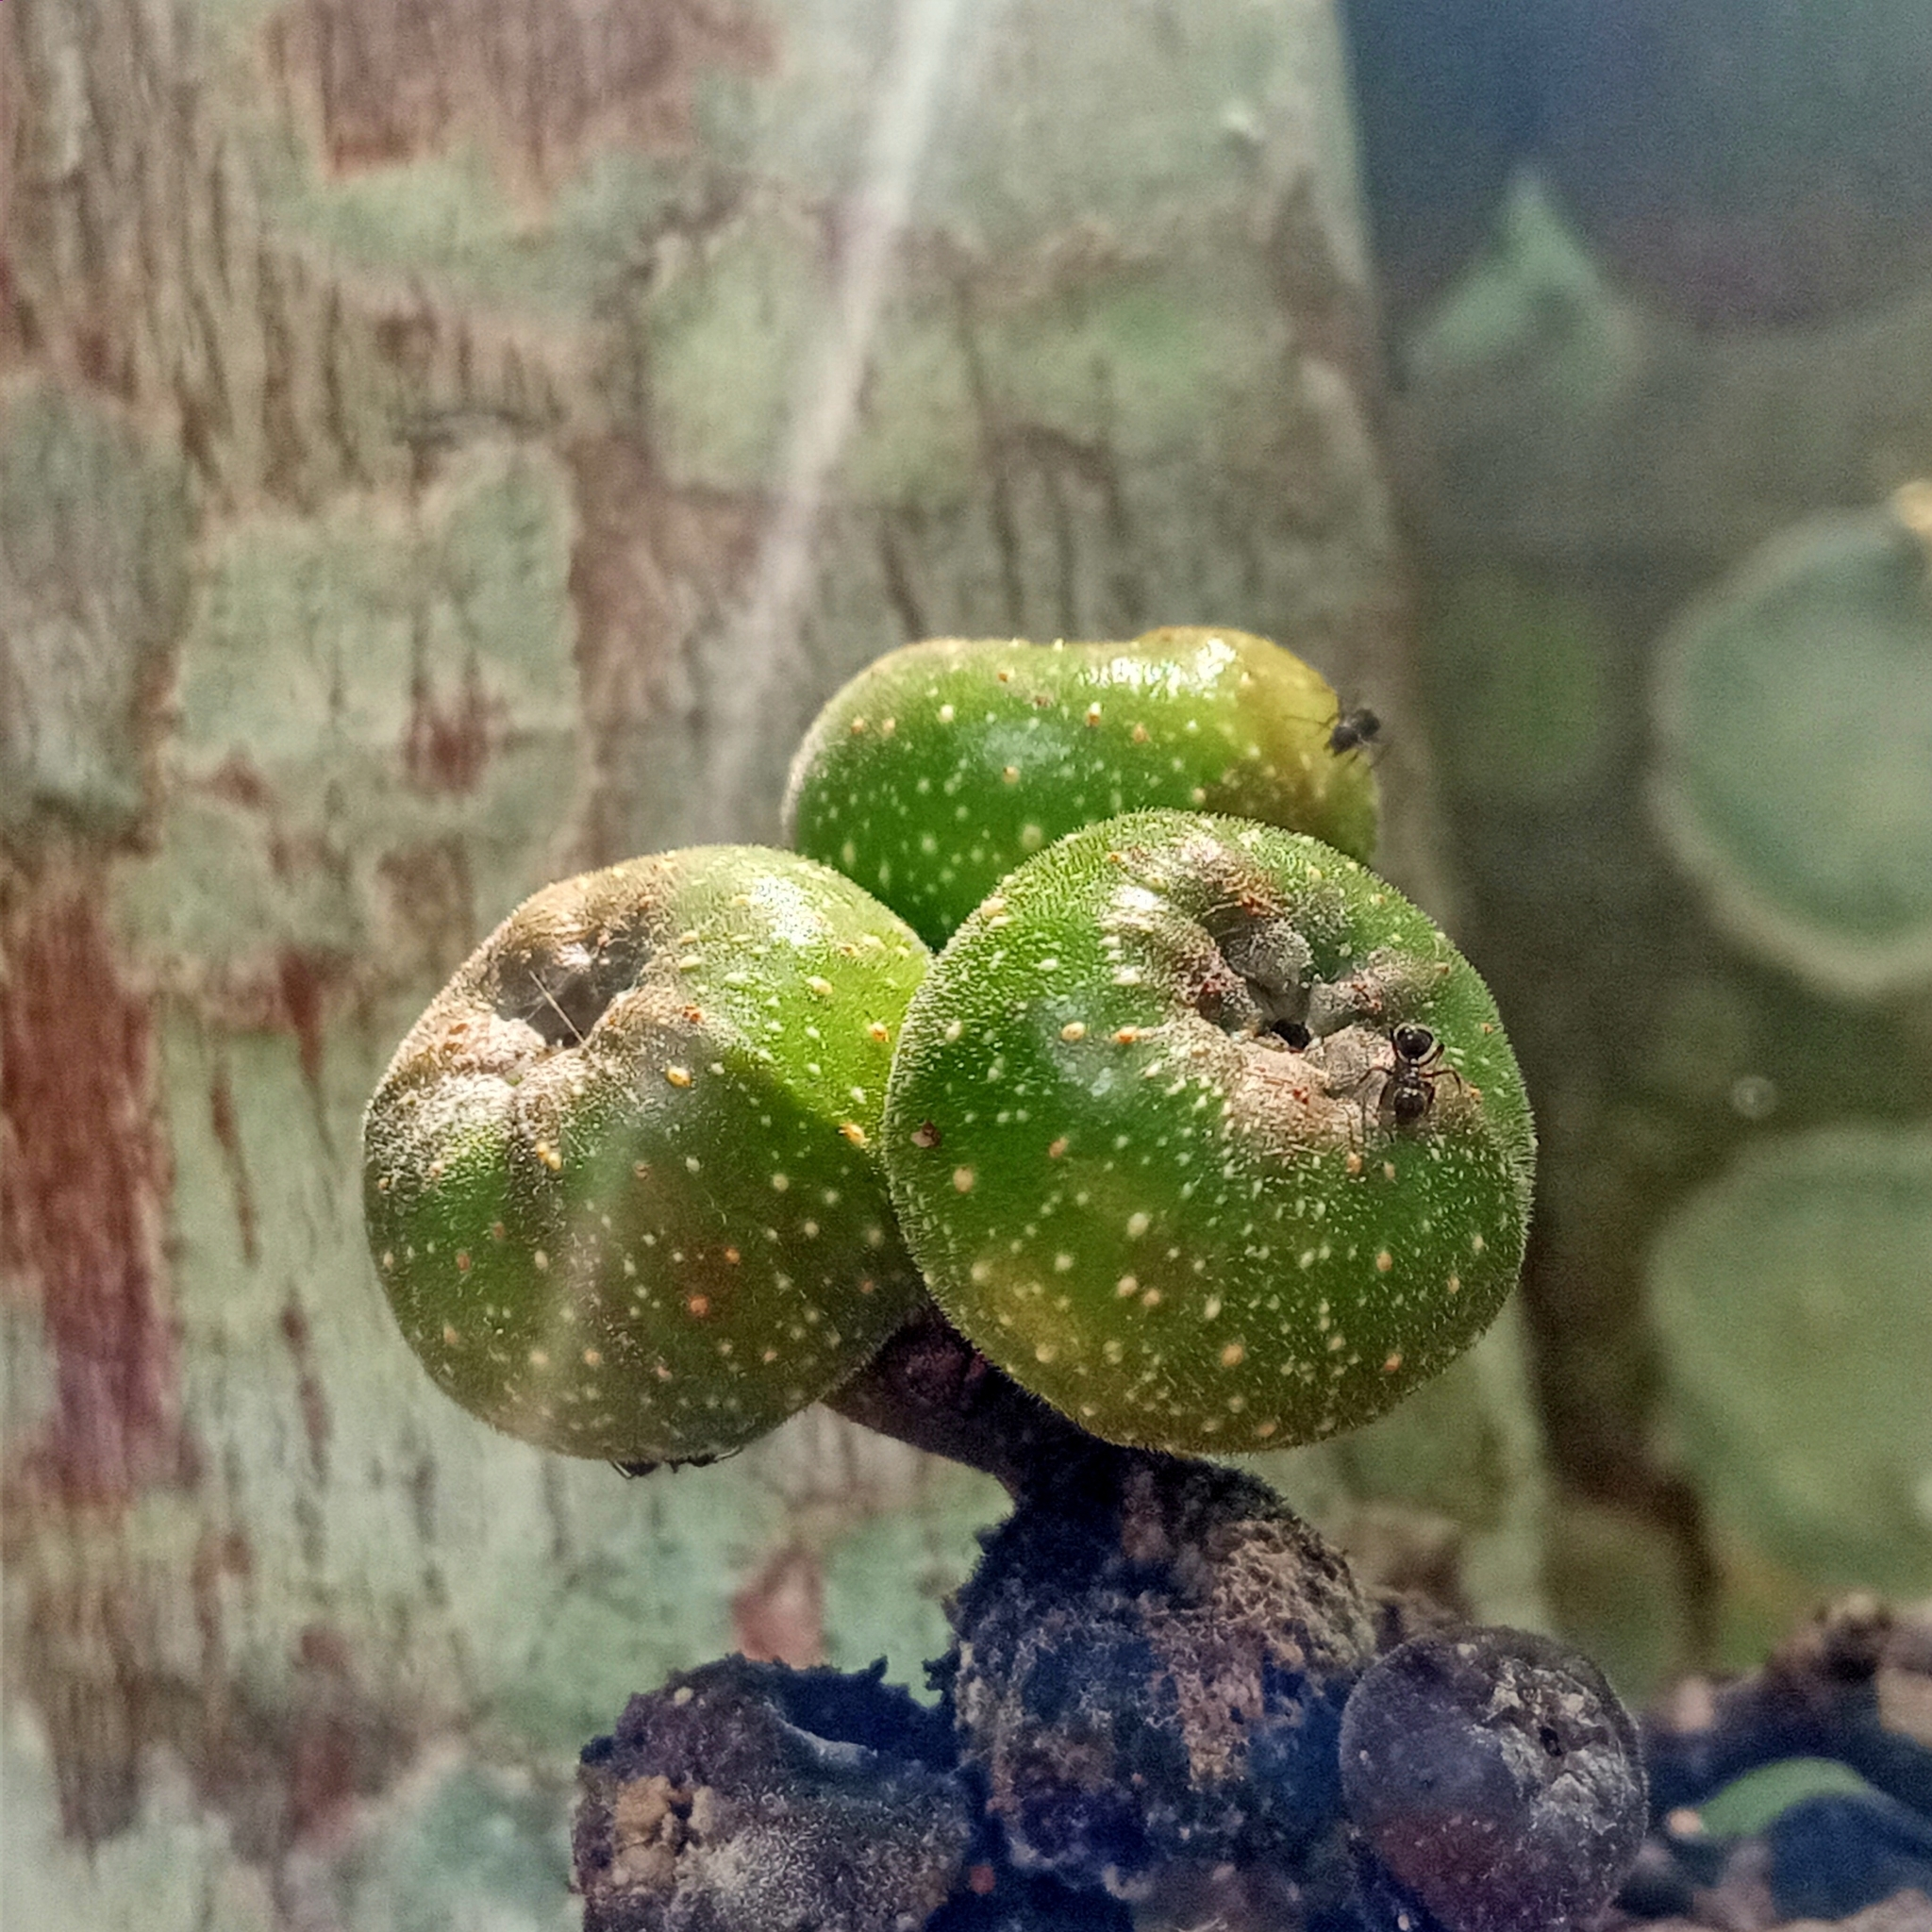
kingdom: Plantae
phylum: Tracheophyta
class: Magnoliopsida
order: Rosales
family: Moraceae
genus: Ficus
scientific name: Ficus fistulosa
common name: Figs
